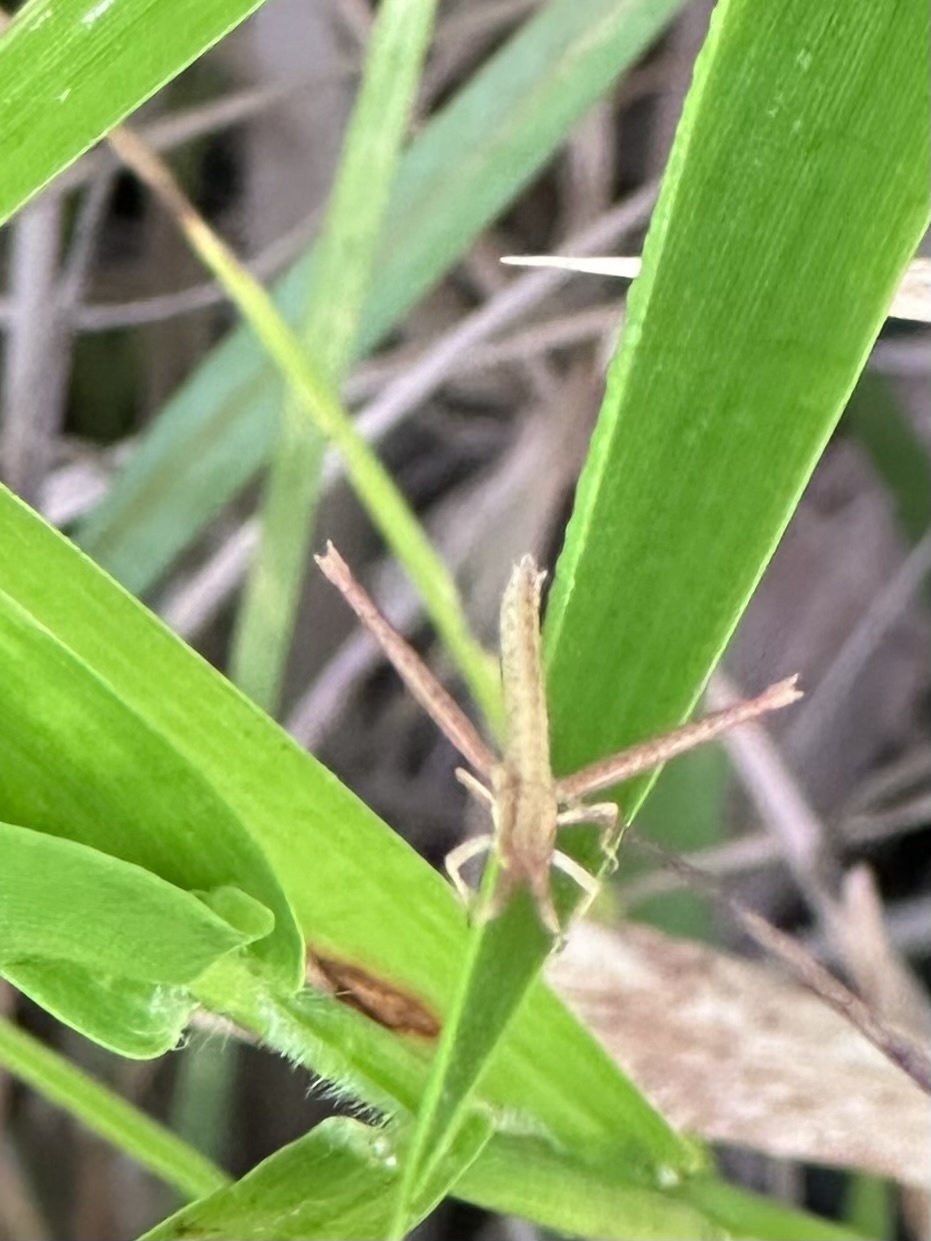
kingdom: Animalia
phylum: Arthropoda
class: Insecta
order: Orthoptera
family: Acrididae
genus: Achurum
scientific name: Achurum carinatum
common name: Long-headed toothpick grasshopper
